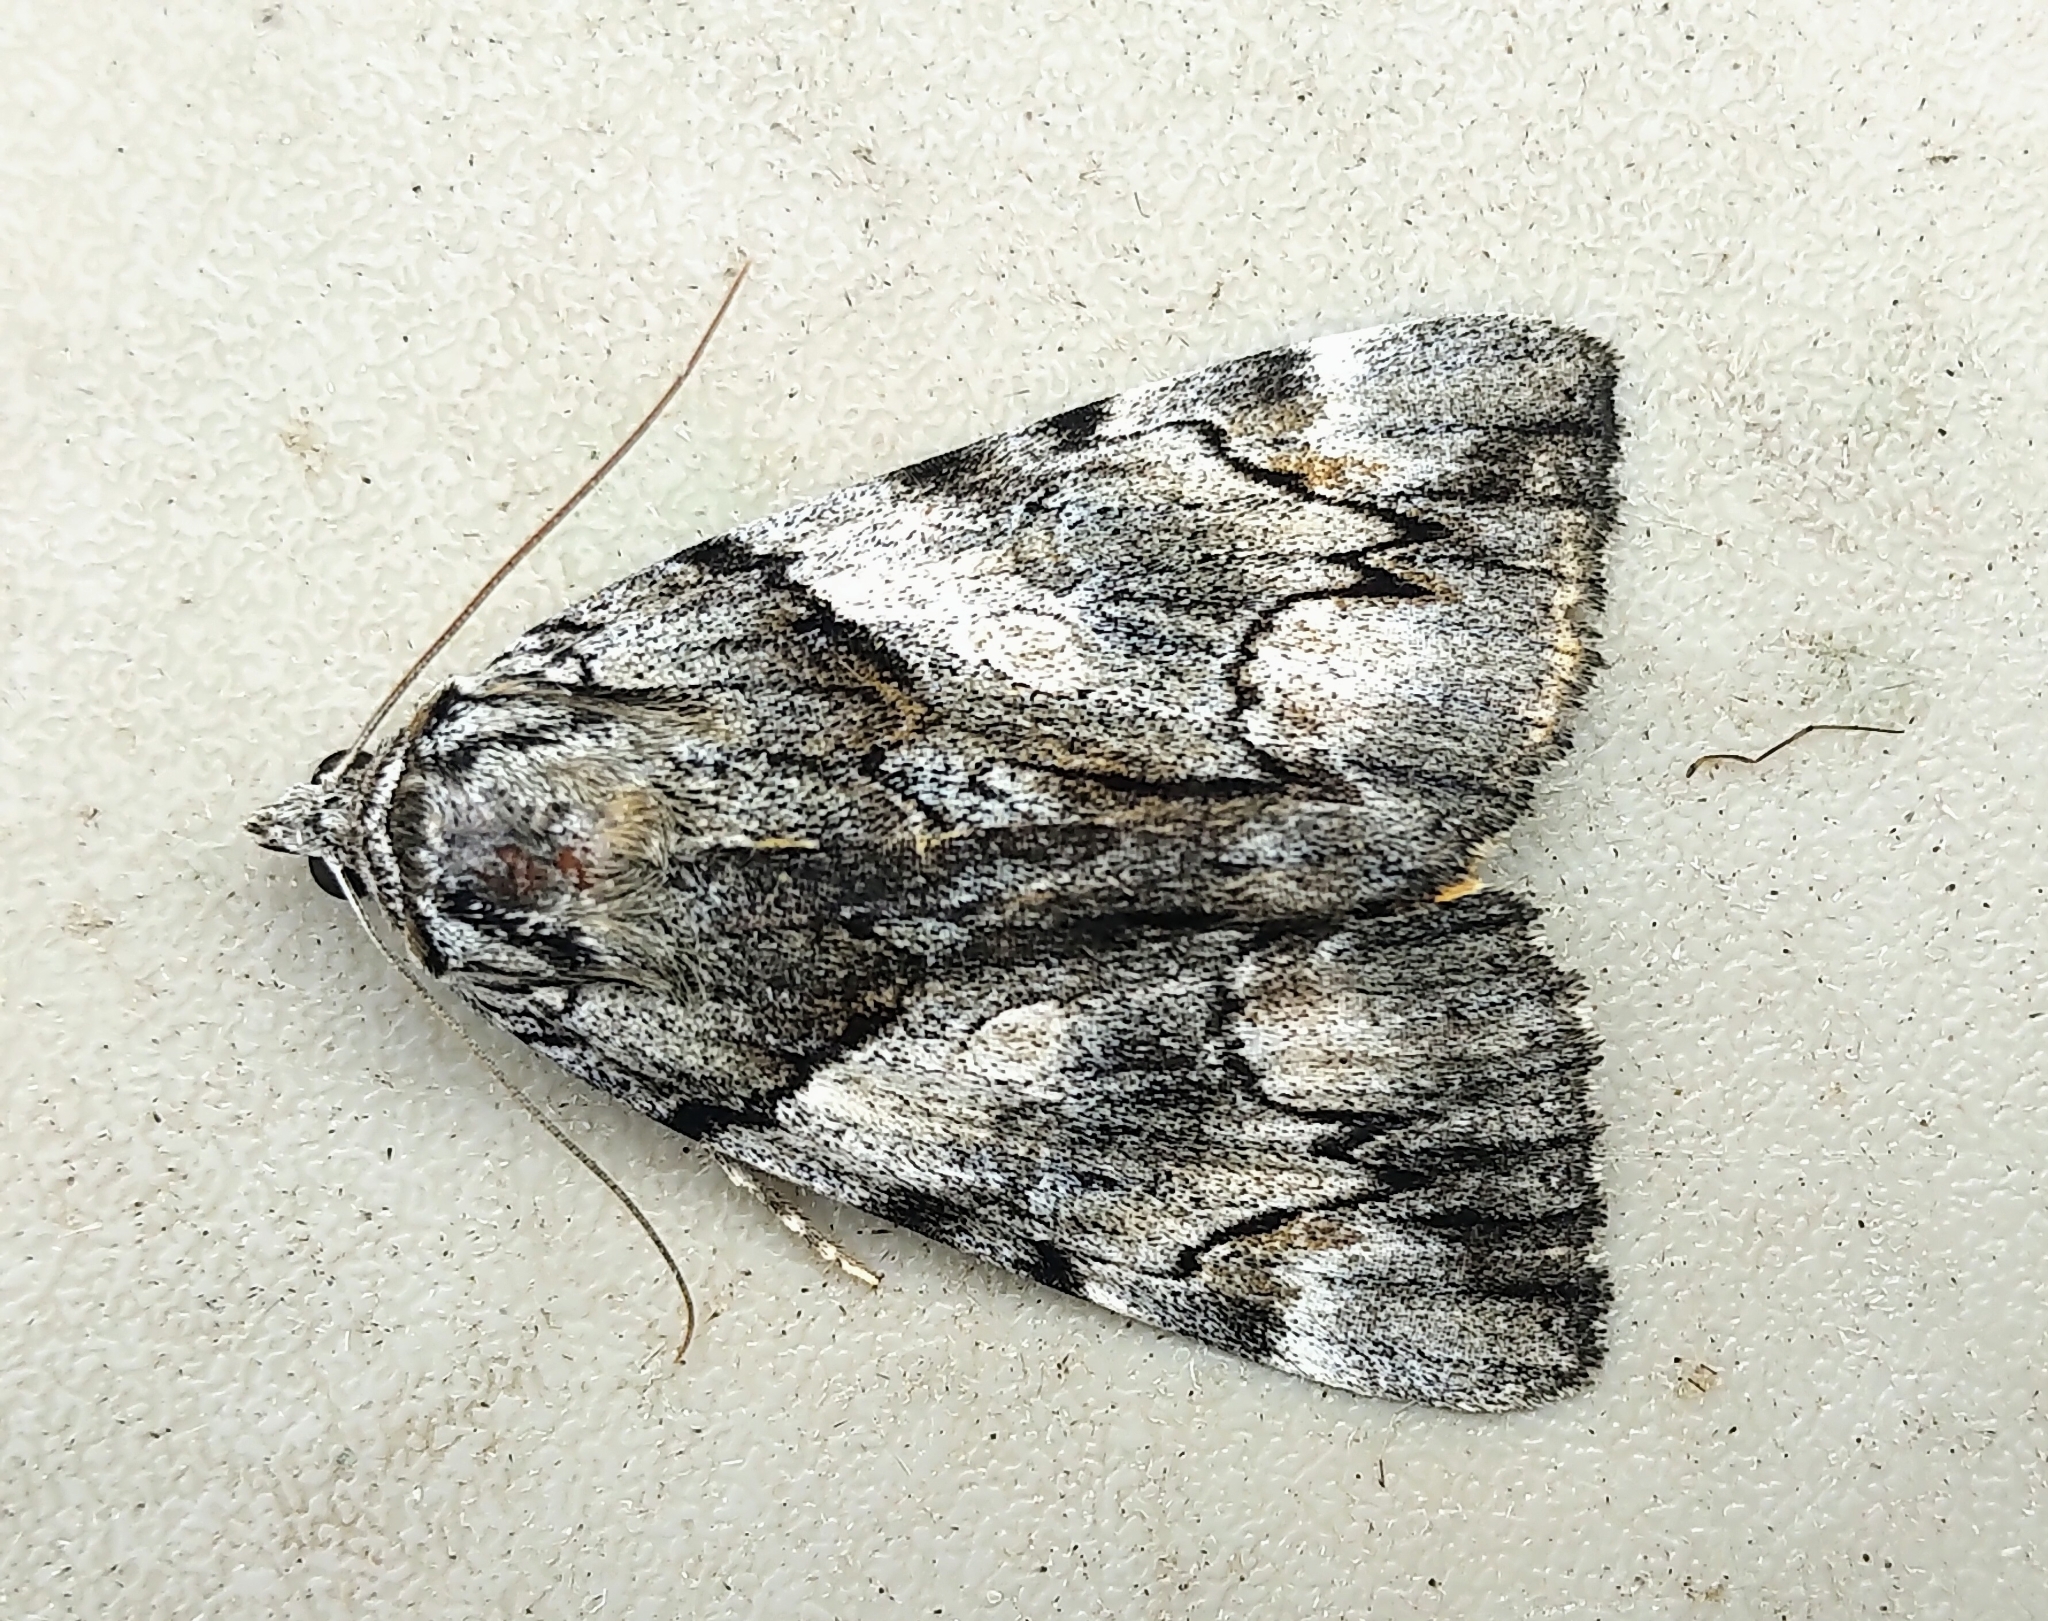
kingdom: Animalia
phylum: Arthropoda
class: Insecta
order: Lepidoptera
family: Erebidae
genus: Catocala
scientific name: Catocala blandula
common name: Charming underwing
